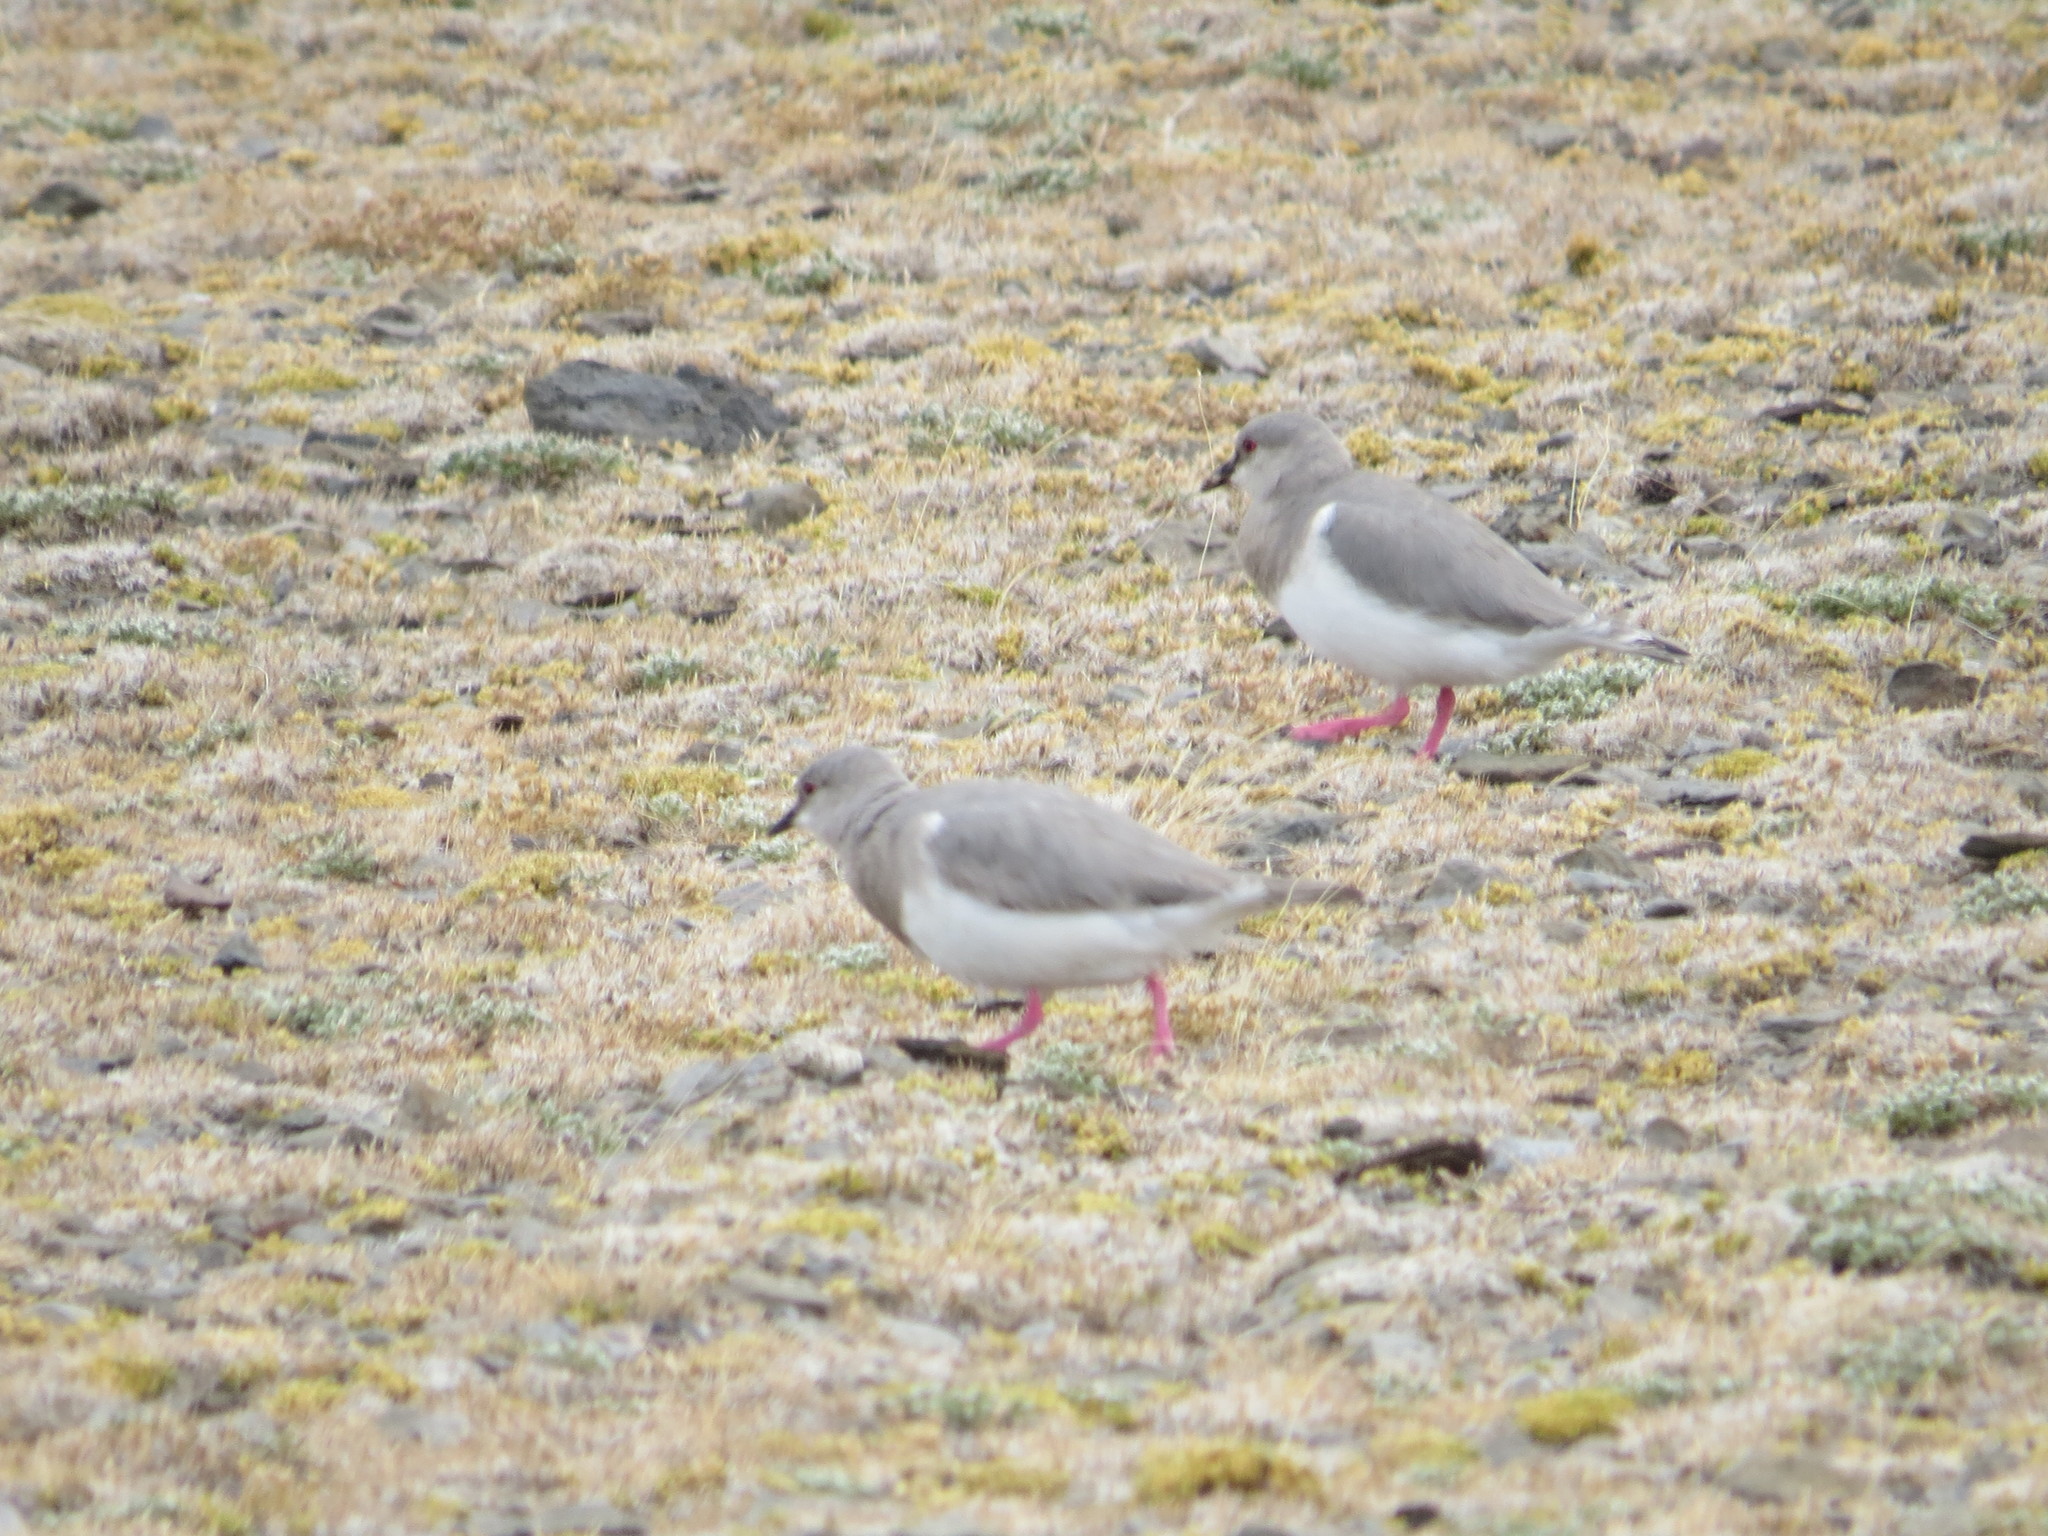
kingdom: Animalia
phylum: Chordata
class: Aves
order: Charadriiformes
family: Pluvianellidae
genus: Pluvianellus
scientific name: Pluvianellus socialis
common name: Magellanic plover
